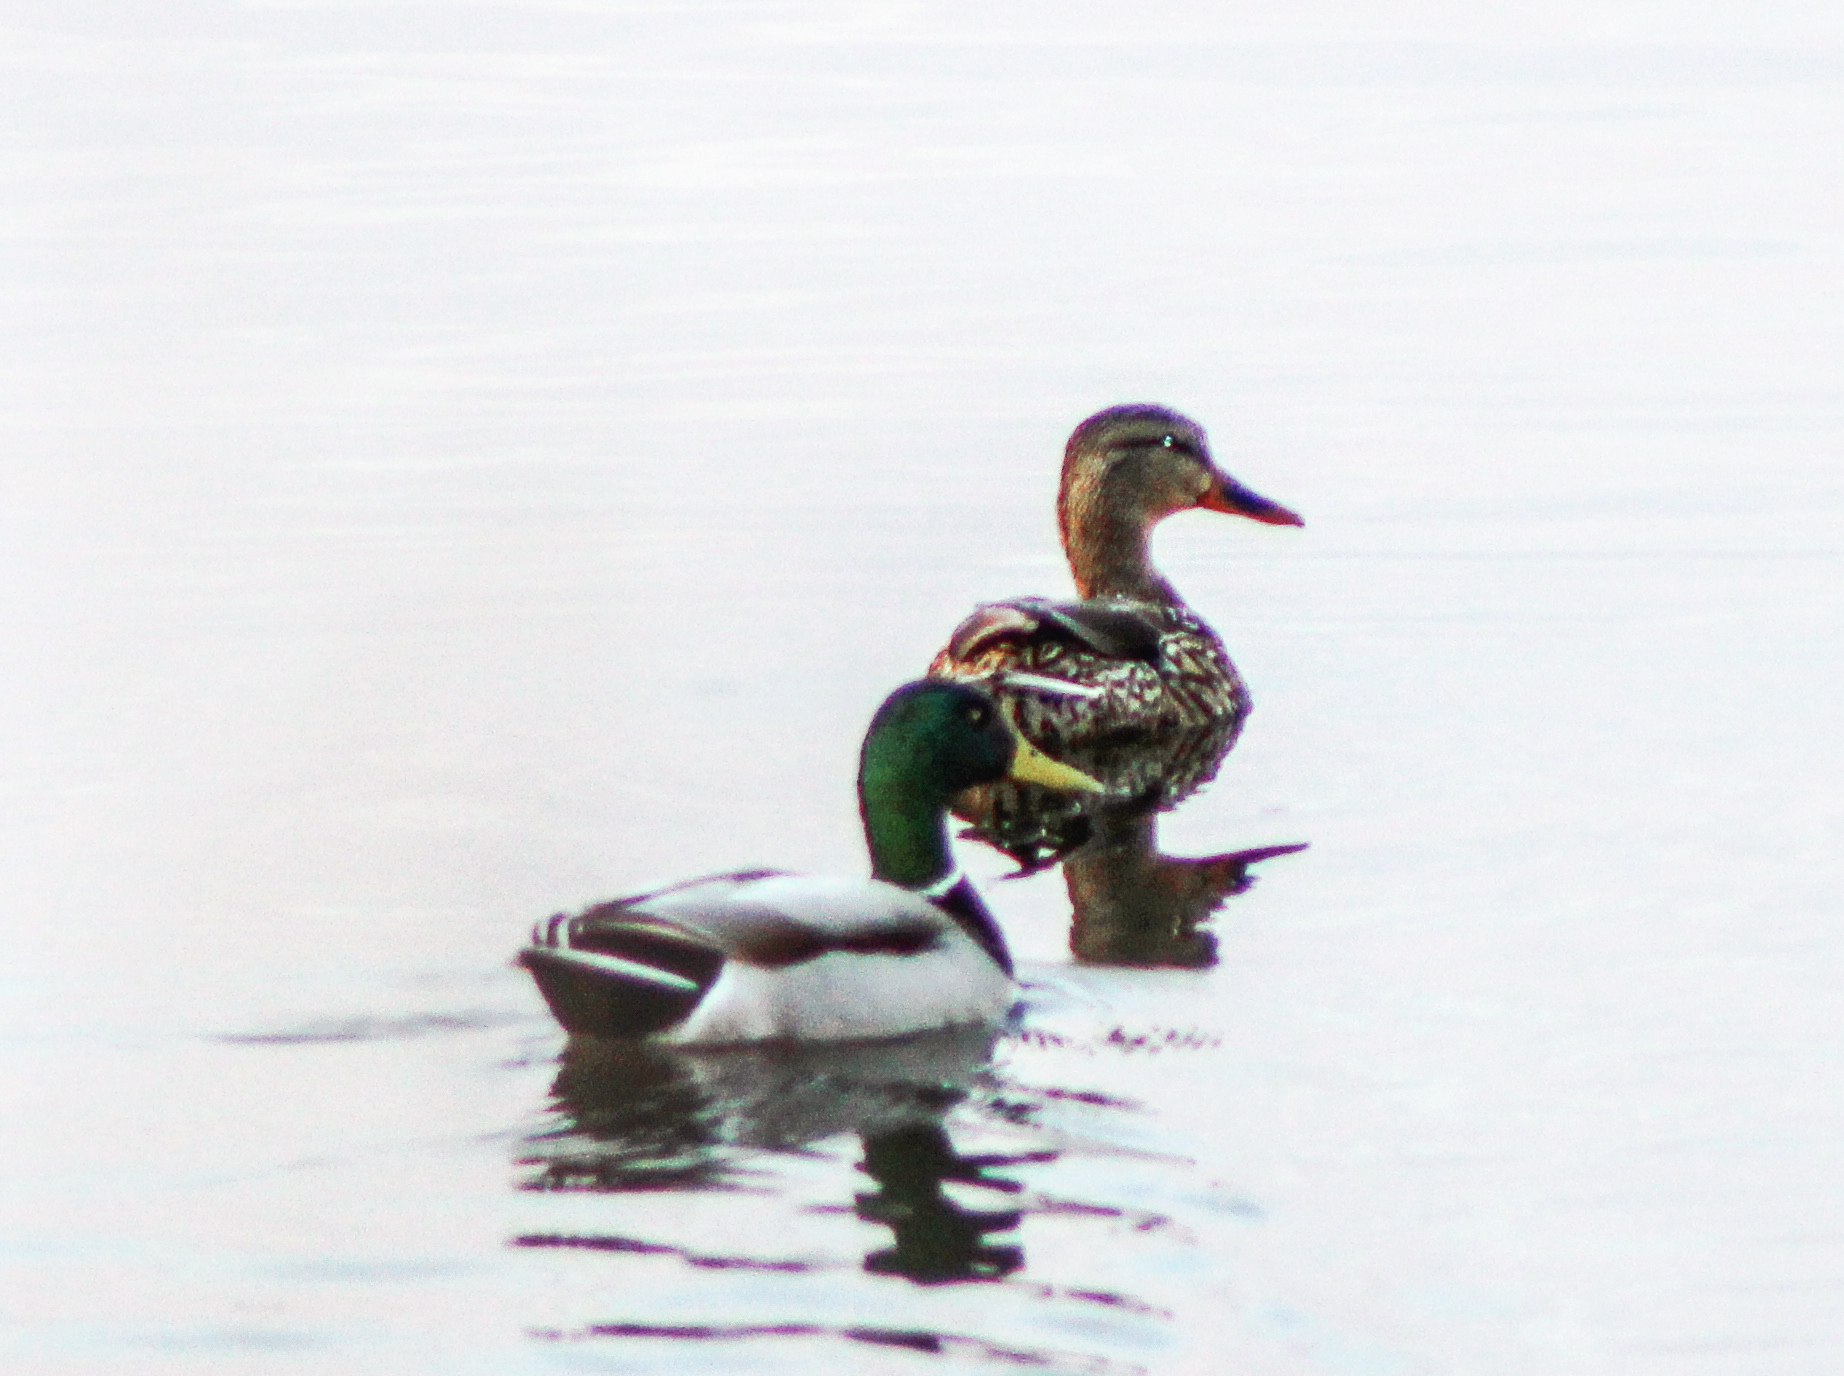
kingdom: Animalia
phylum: Chordata
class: Aves
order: Anseriformes
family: Anatidae
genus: Anas
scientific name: Anas platyrhynchos
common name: Mallard
